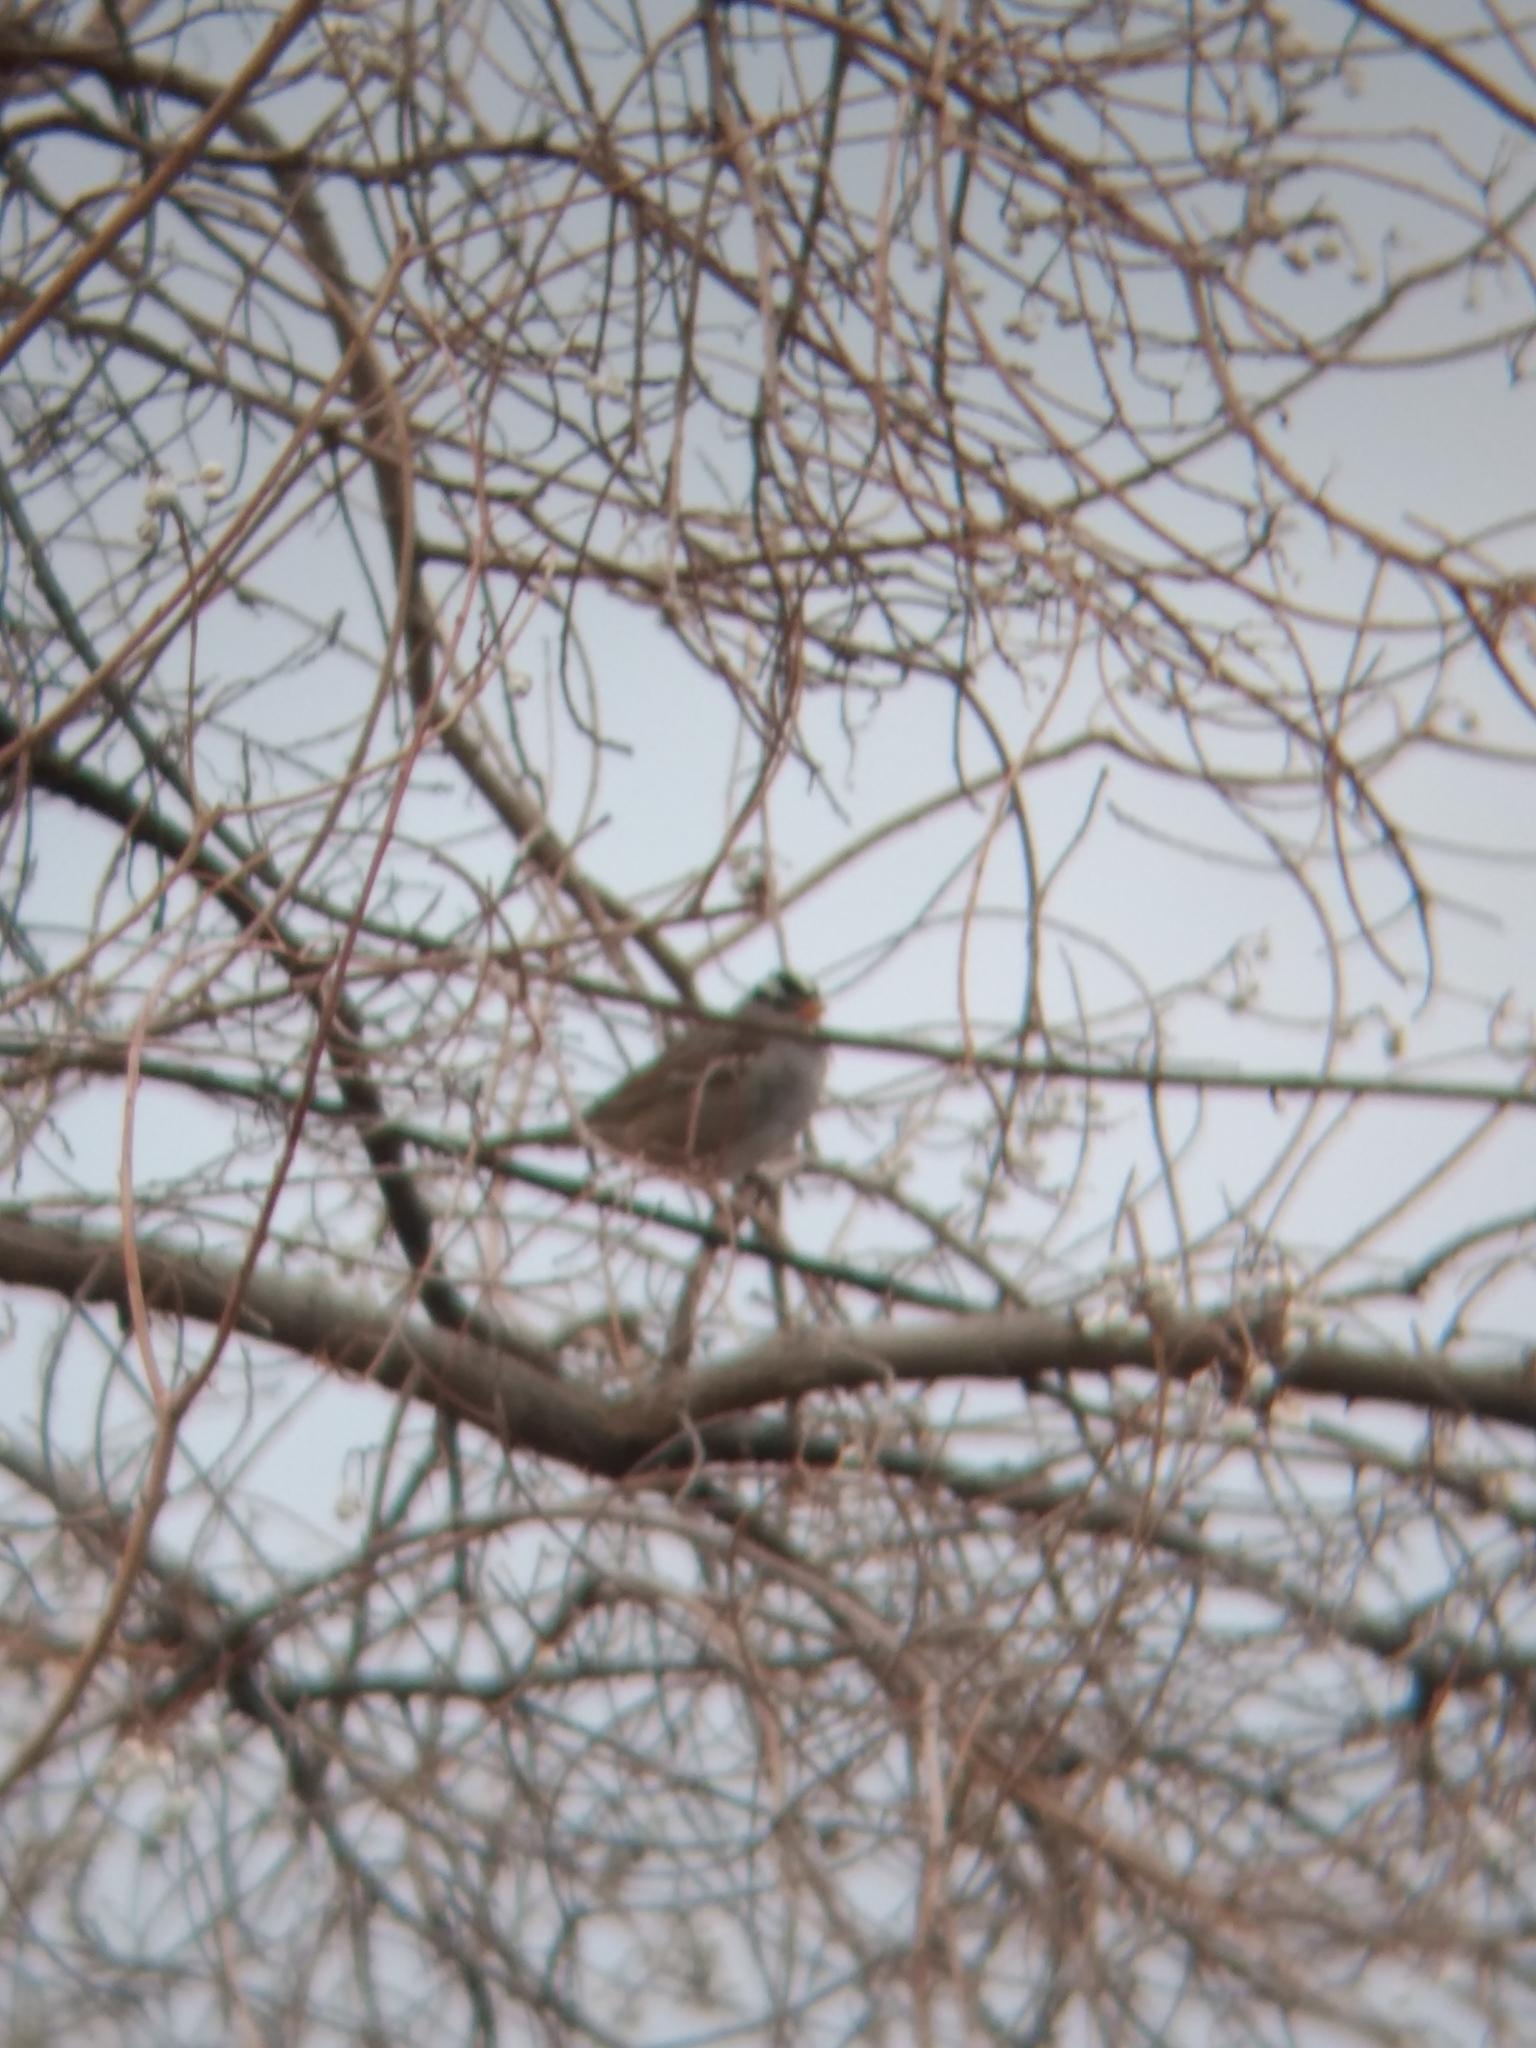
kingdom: Animalia
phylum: Chordata
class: Aves
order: Passeriformes
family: Passerellidae
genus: Zonotrichia
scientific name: Zonotrichia leucophrys
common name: White-crowned sparrow
